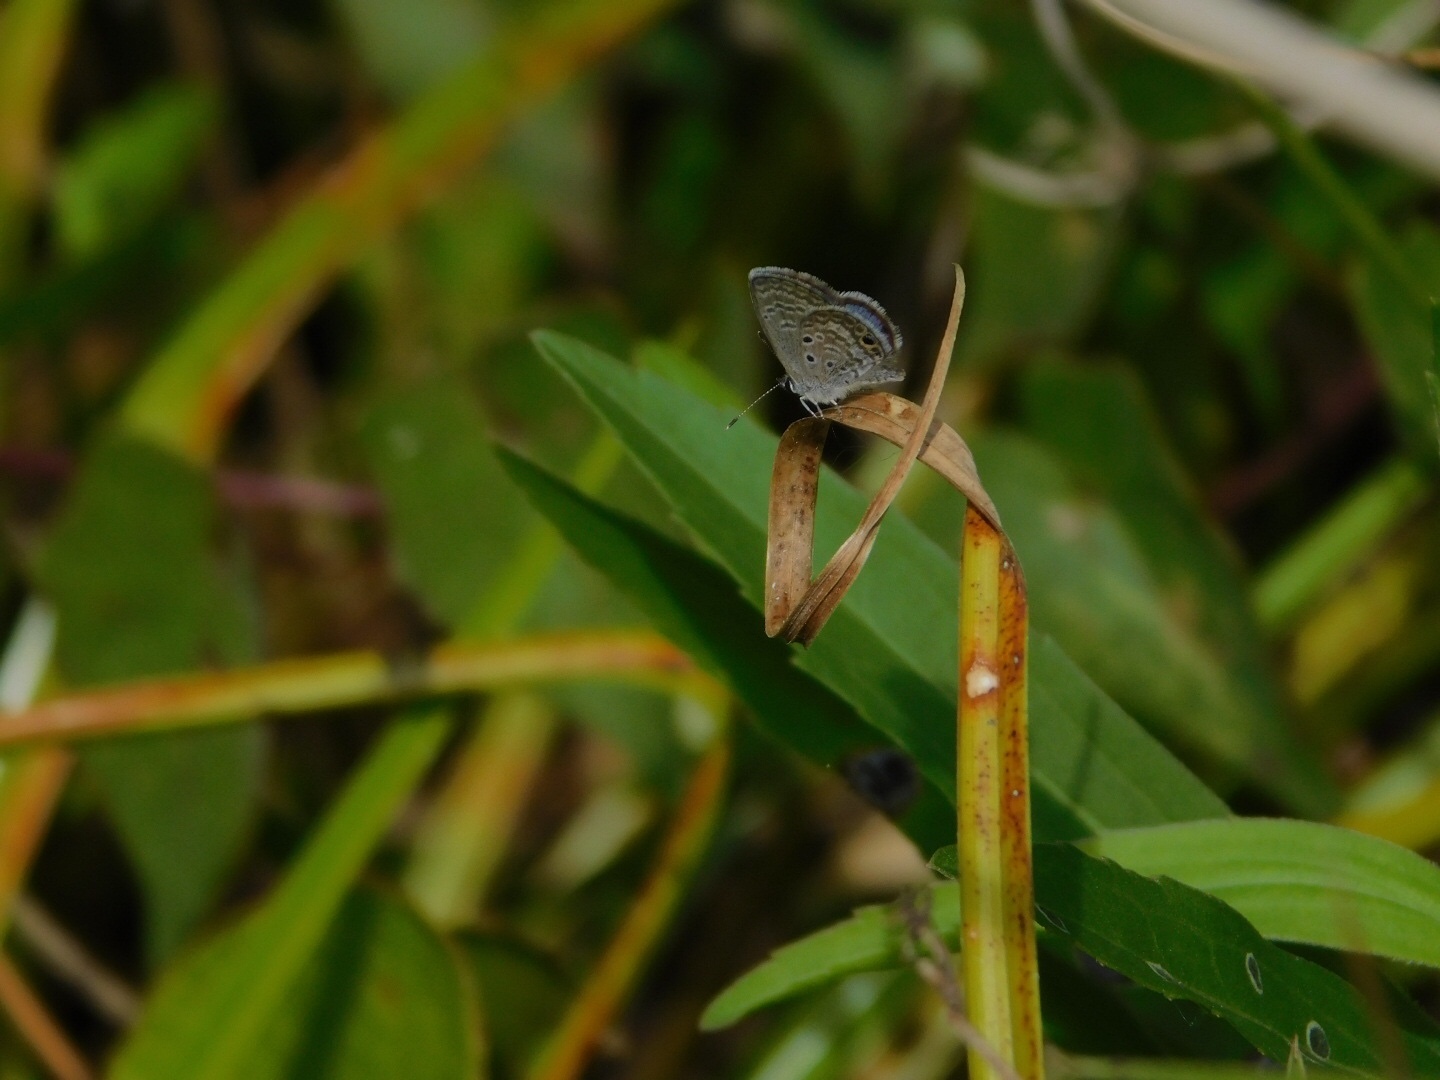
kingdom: Animalia
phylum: Arthropoda
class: Insecta
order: Lepidoptera
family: Lycaenidae
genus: Hemiargus
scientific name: Hemiargus ceraunus
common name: Ceraunus blue
